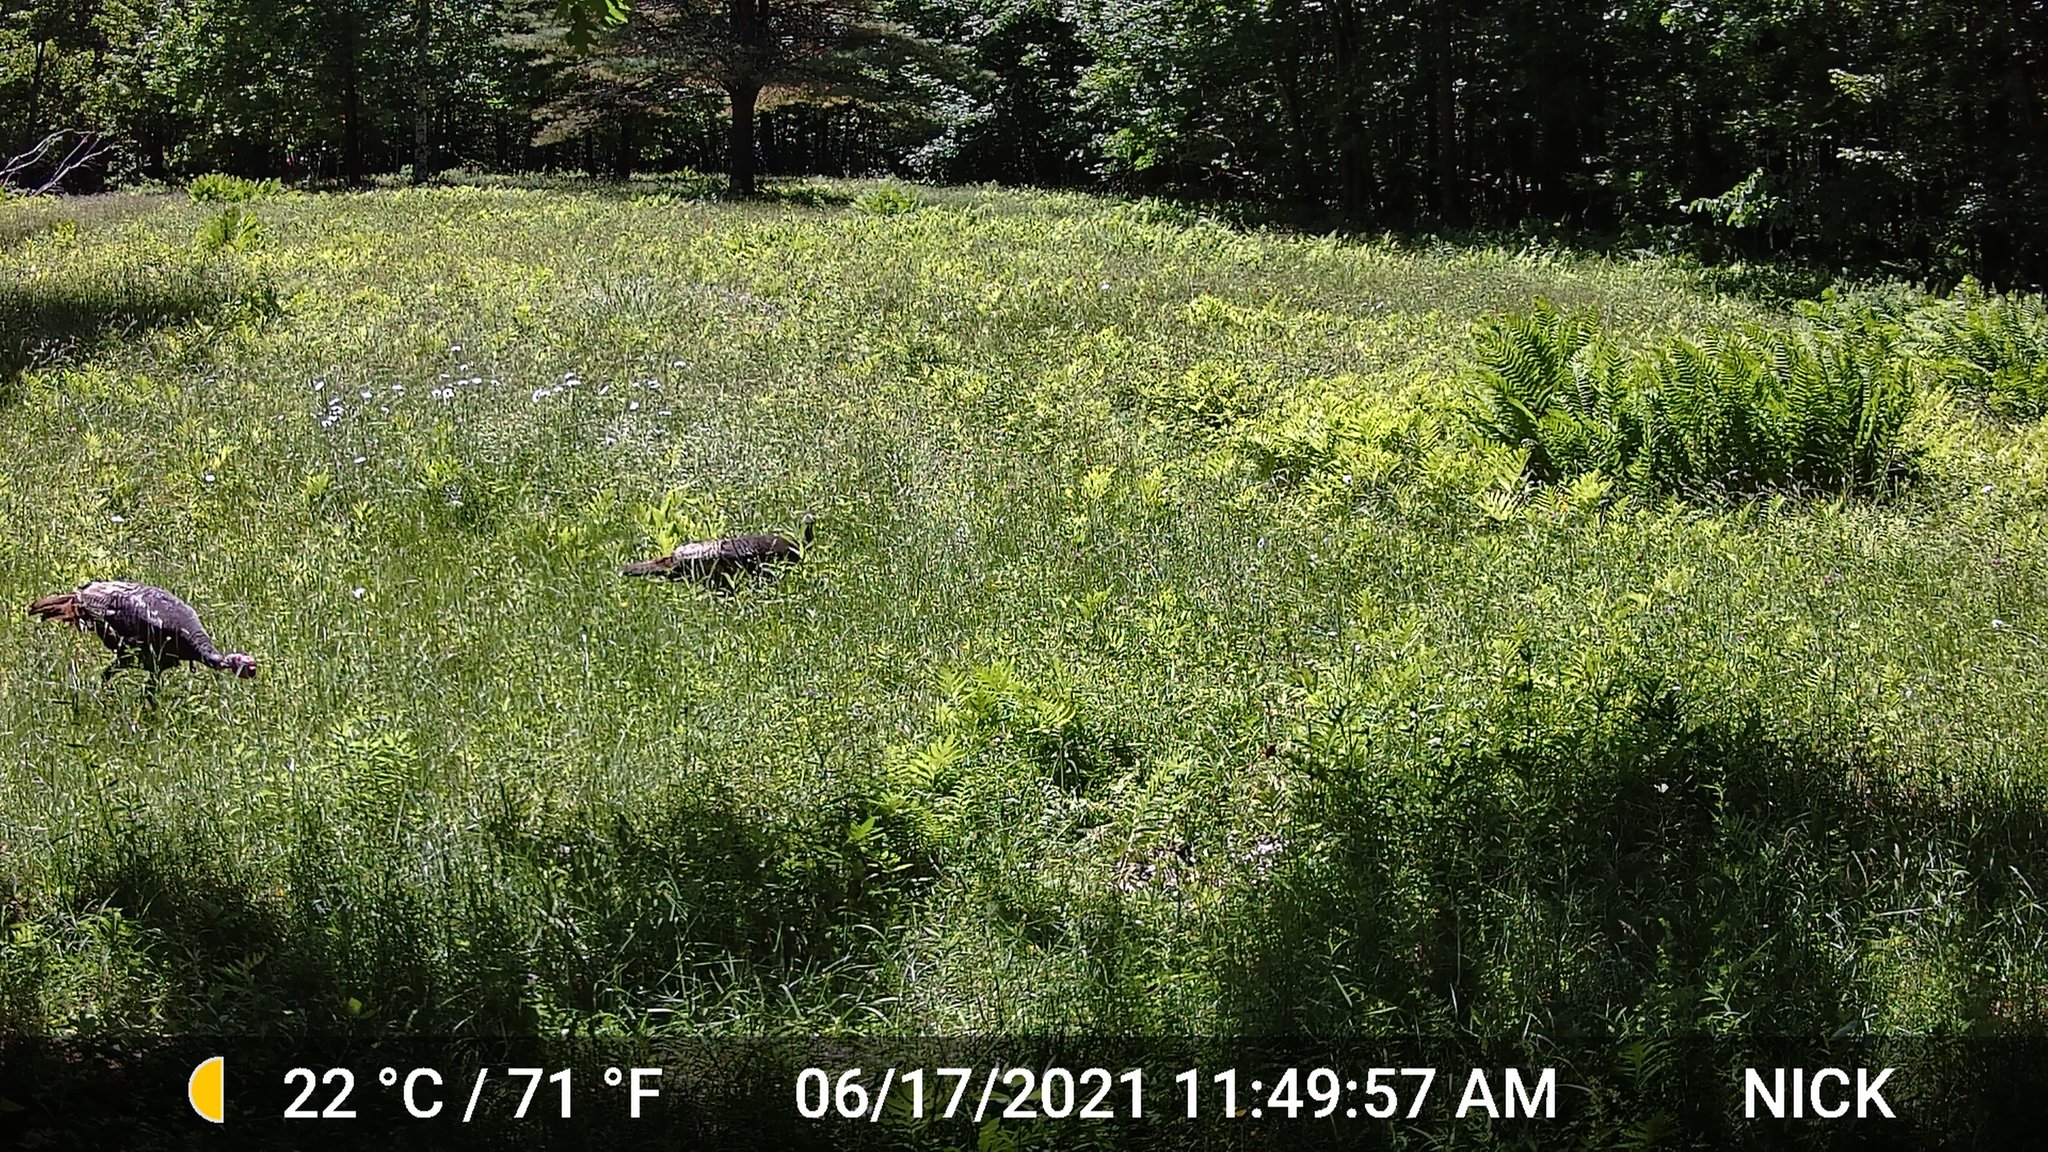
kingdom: Animalia
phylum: Chordata
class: Aves
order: Galliformes
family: Phasianidae
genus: Meleagris
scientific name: Meleagris gallopavo
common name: Wild turkey
